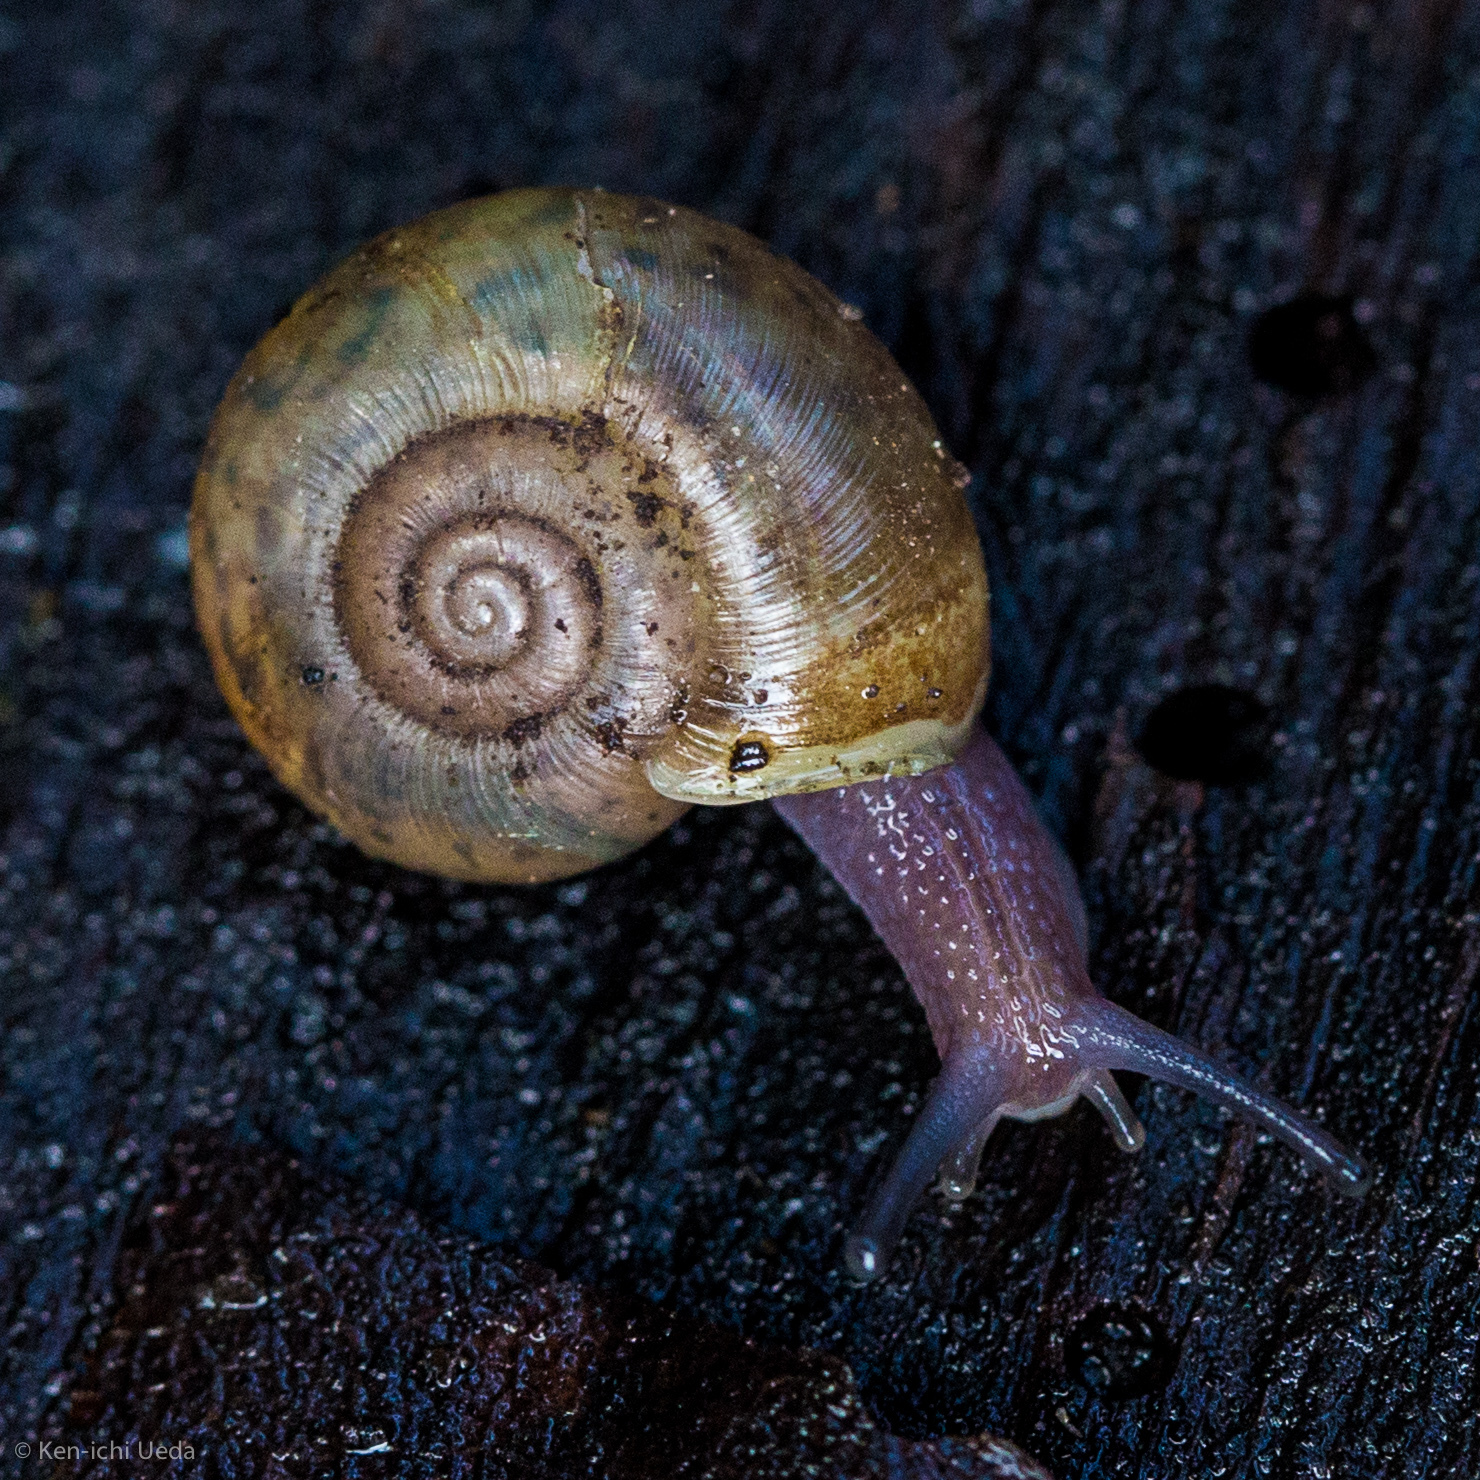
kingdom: Animalia
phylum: Mollusca
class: Gastropoda
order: Stylommatophora
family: Haplotrematidae
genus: Haplotrema
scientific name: Haplotrema minimum
